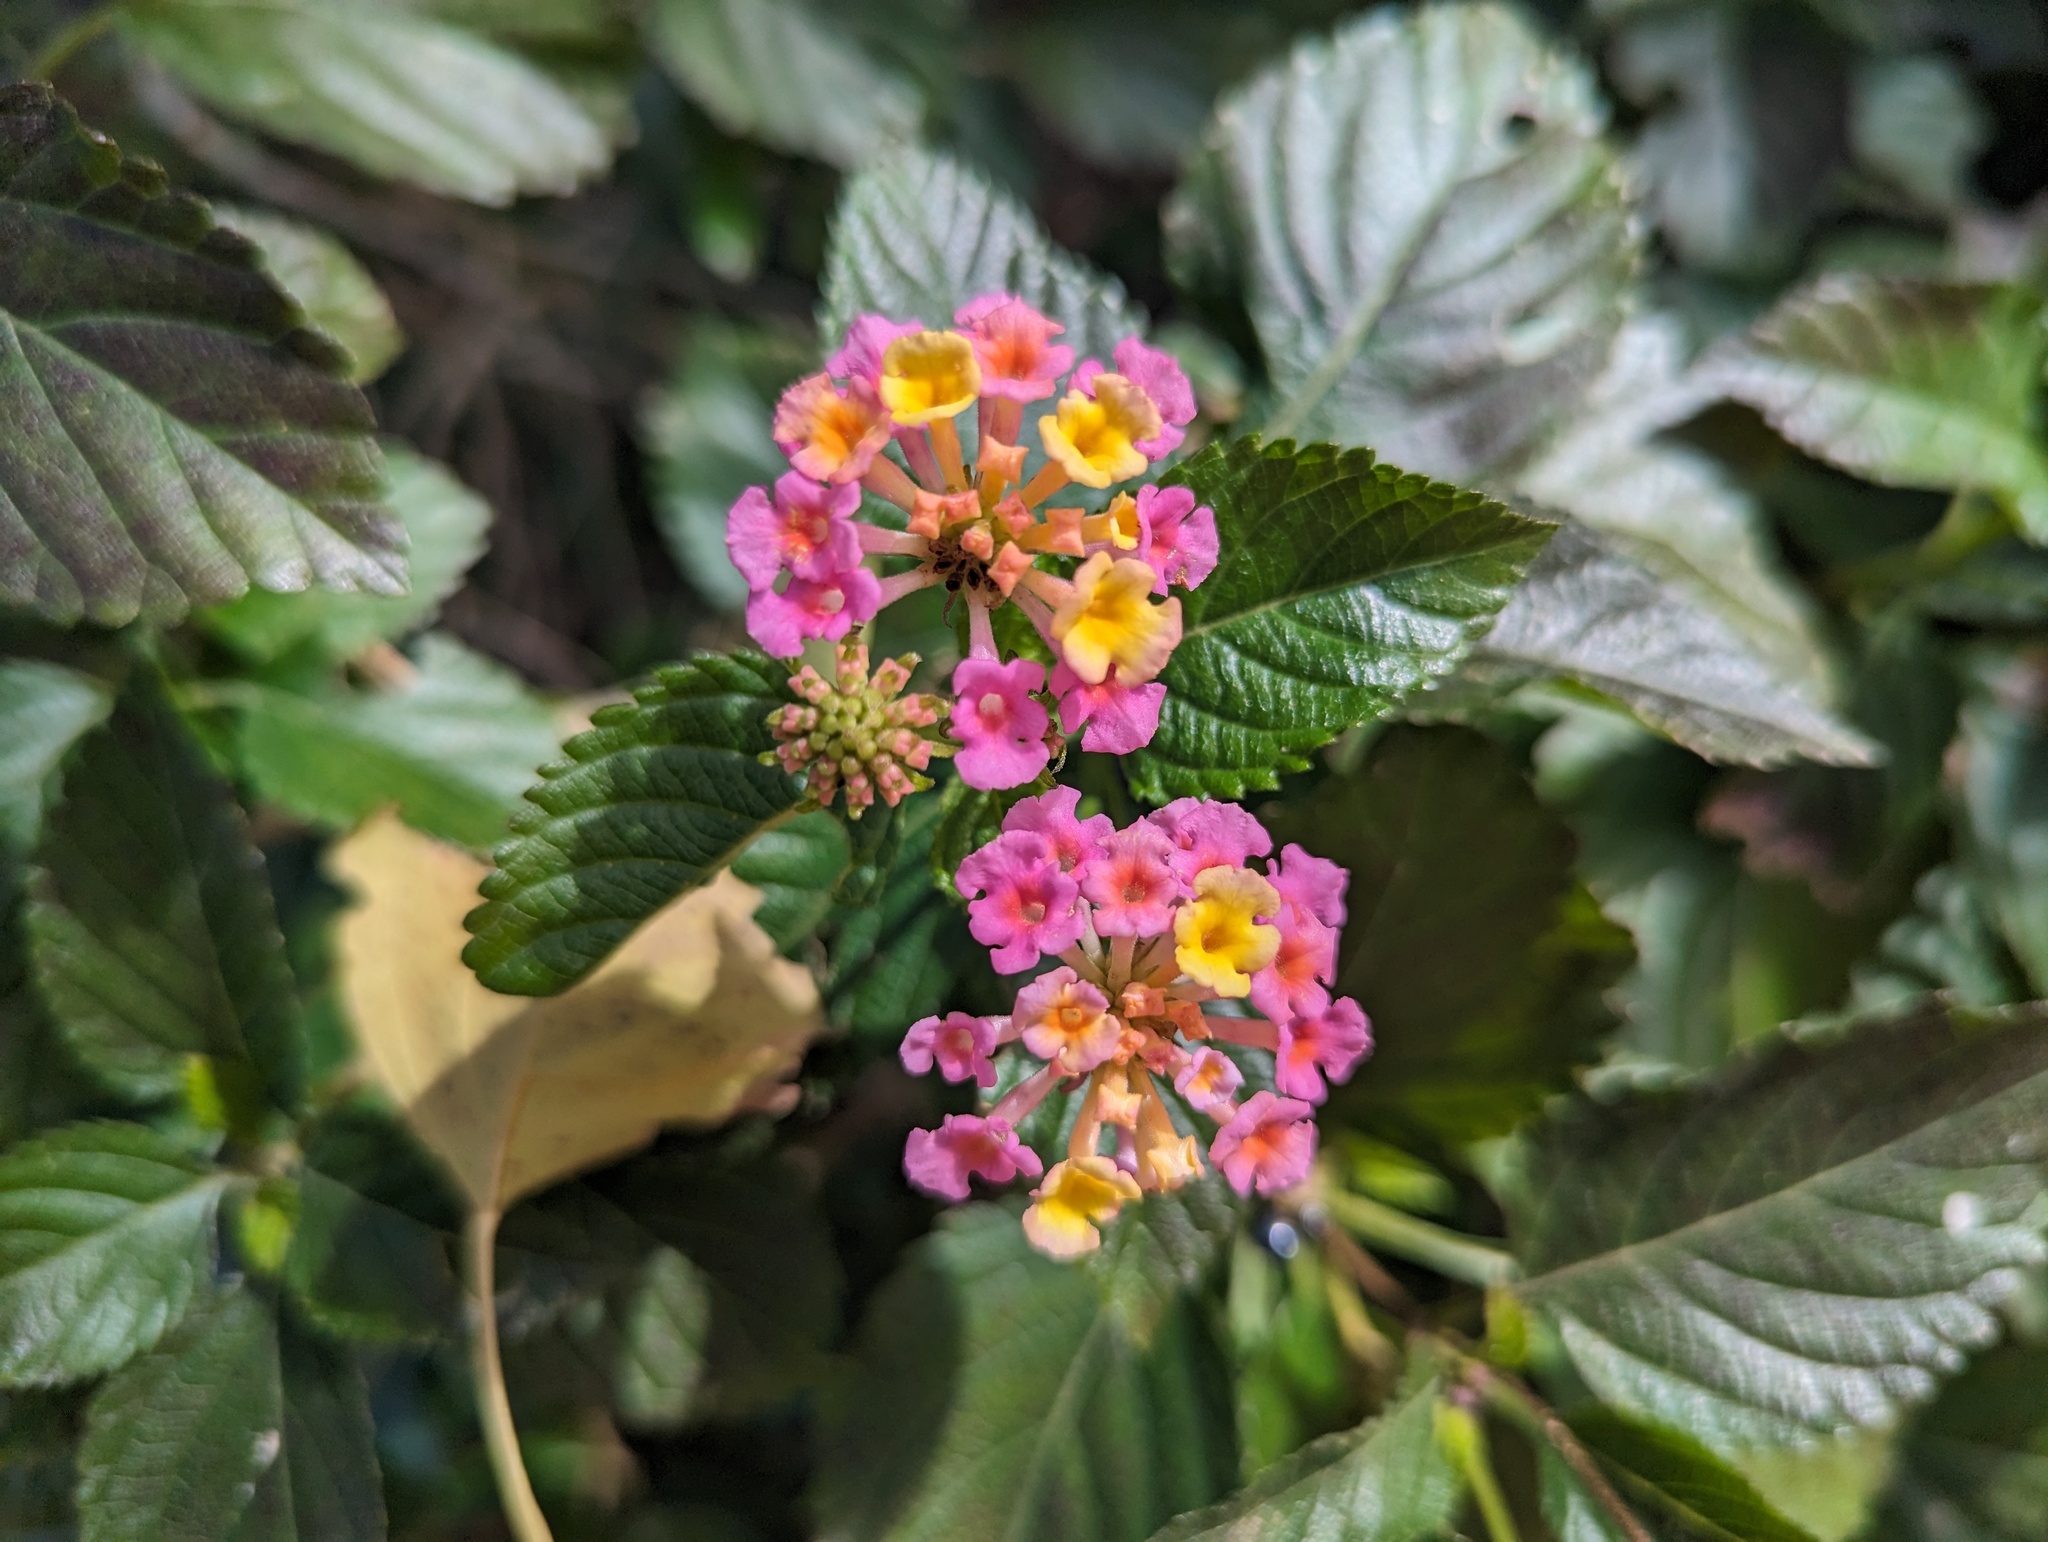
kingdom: Plantae
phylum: Tracheophyta
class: Magnoliopsida
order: Lamiales
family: Verbenaceae
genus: Lantana
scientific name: Lantana strigocamara
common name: Lantana
